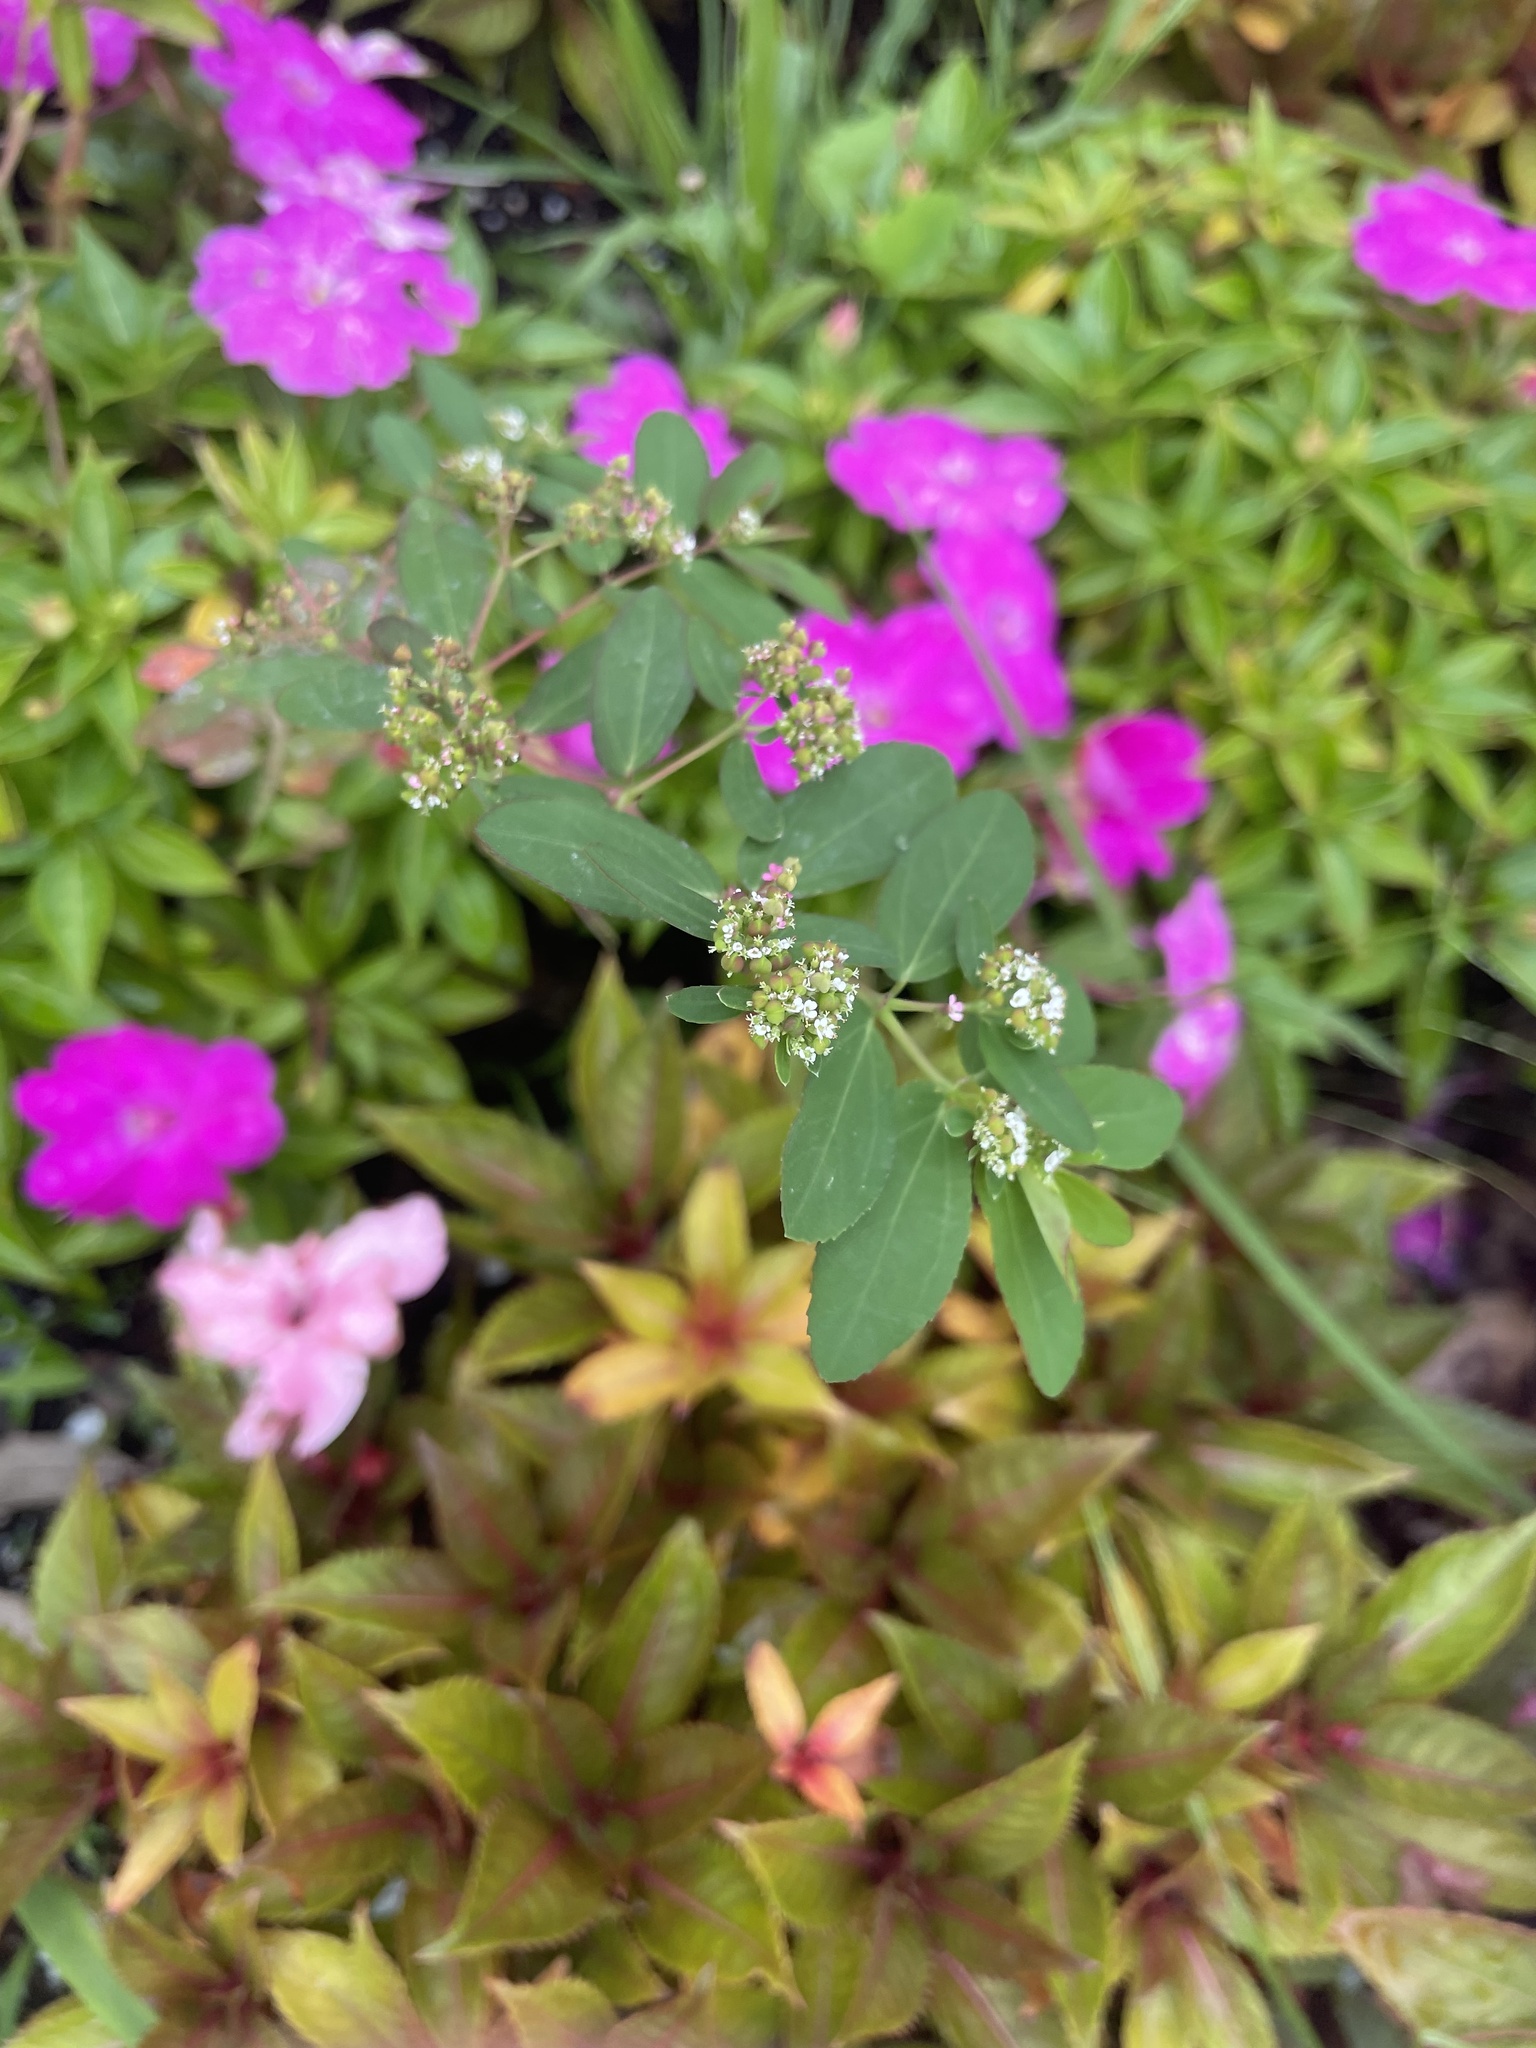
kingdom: Plantae
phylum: Tracheophyta
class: Magnoliopsida
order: Malpighiales
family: Euphorbiaceae
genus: Euphorbia
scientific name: Euphorbia hypericifolia
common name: Graceful sandmat
